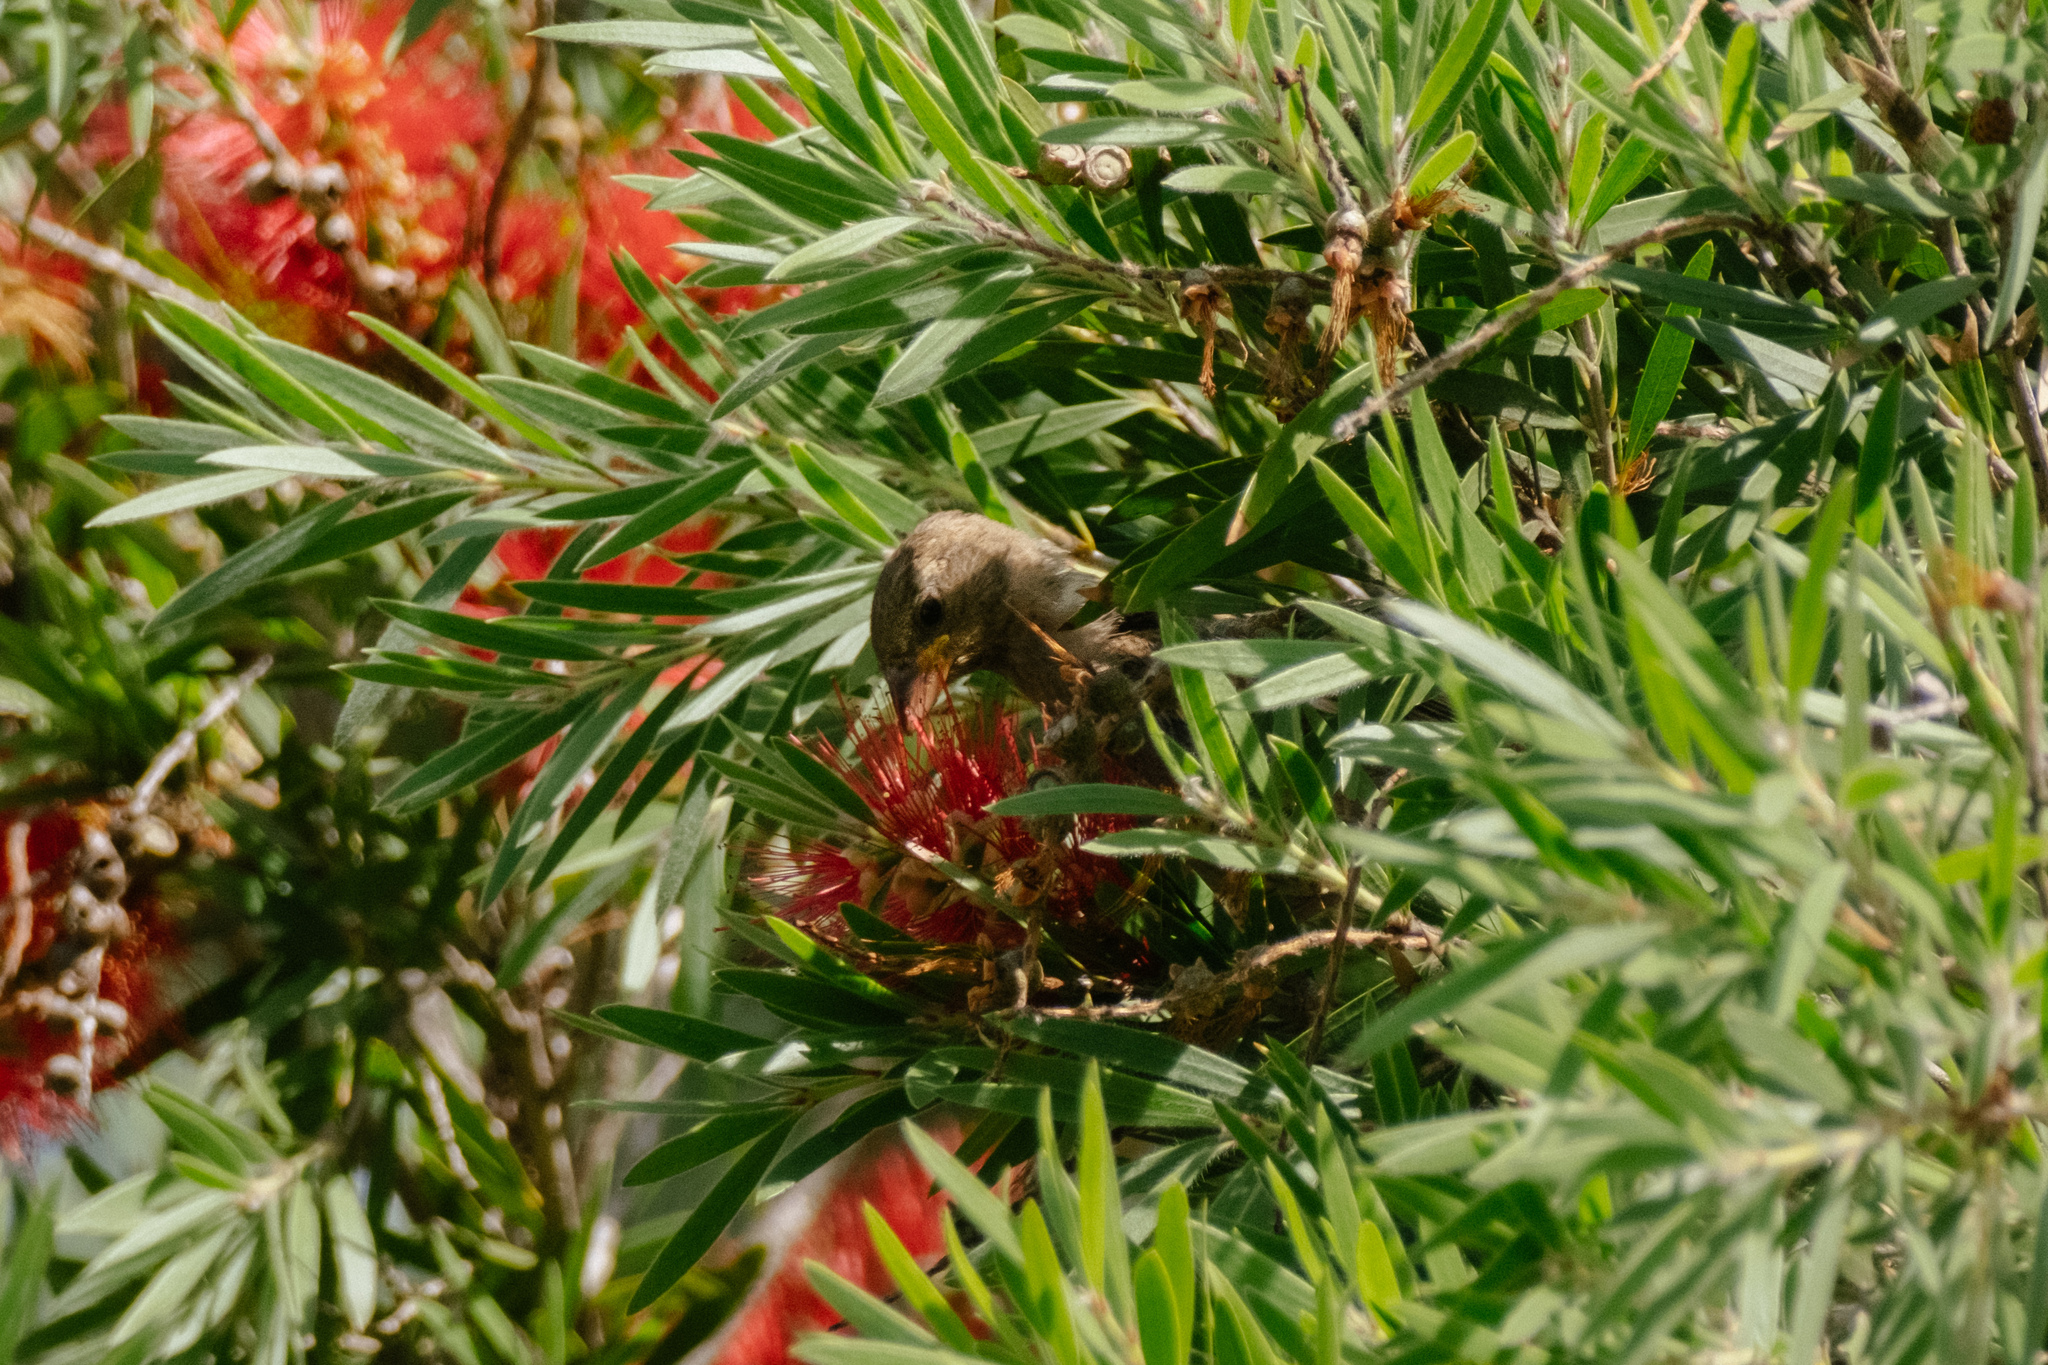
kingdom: Animalia
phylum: Chordata
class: Aves
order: Passeriformes
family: Passeridae
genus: Passer
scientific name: Passer domesticus
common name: House sparrow
